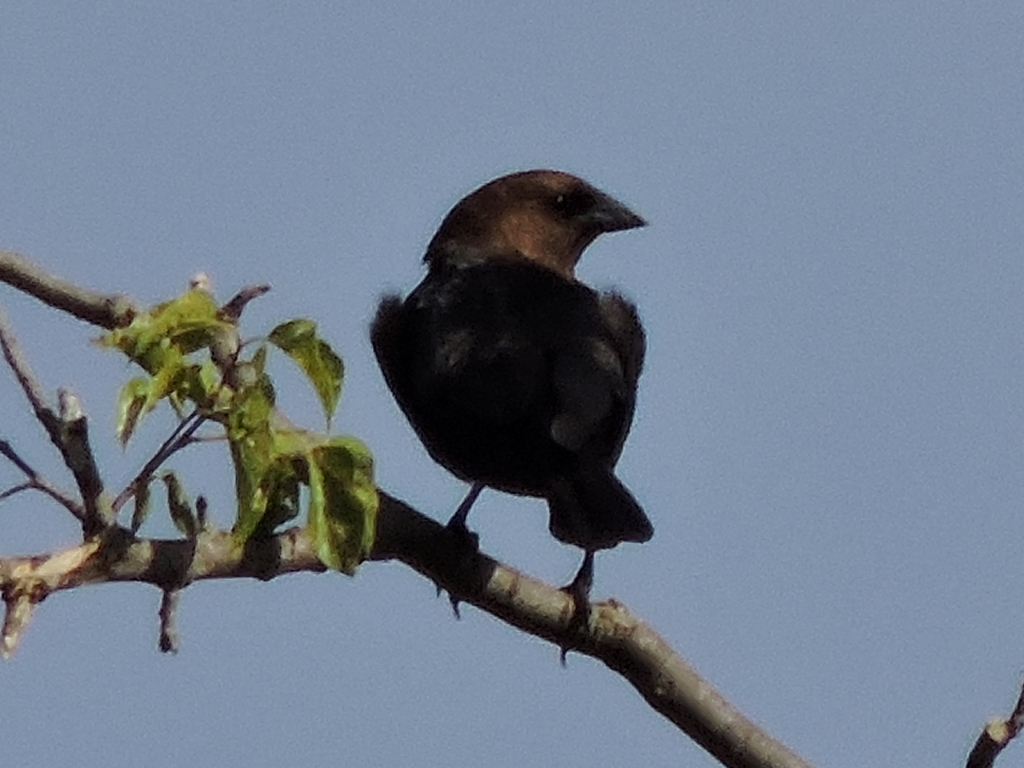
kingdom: Animalia
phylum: Chordata
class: Aves
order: Passeriformes
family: Icteridae
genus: Molothrus
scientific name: Molothrus ater
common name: Brown-headed cowbird
